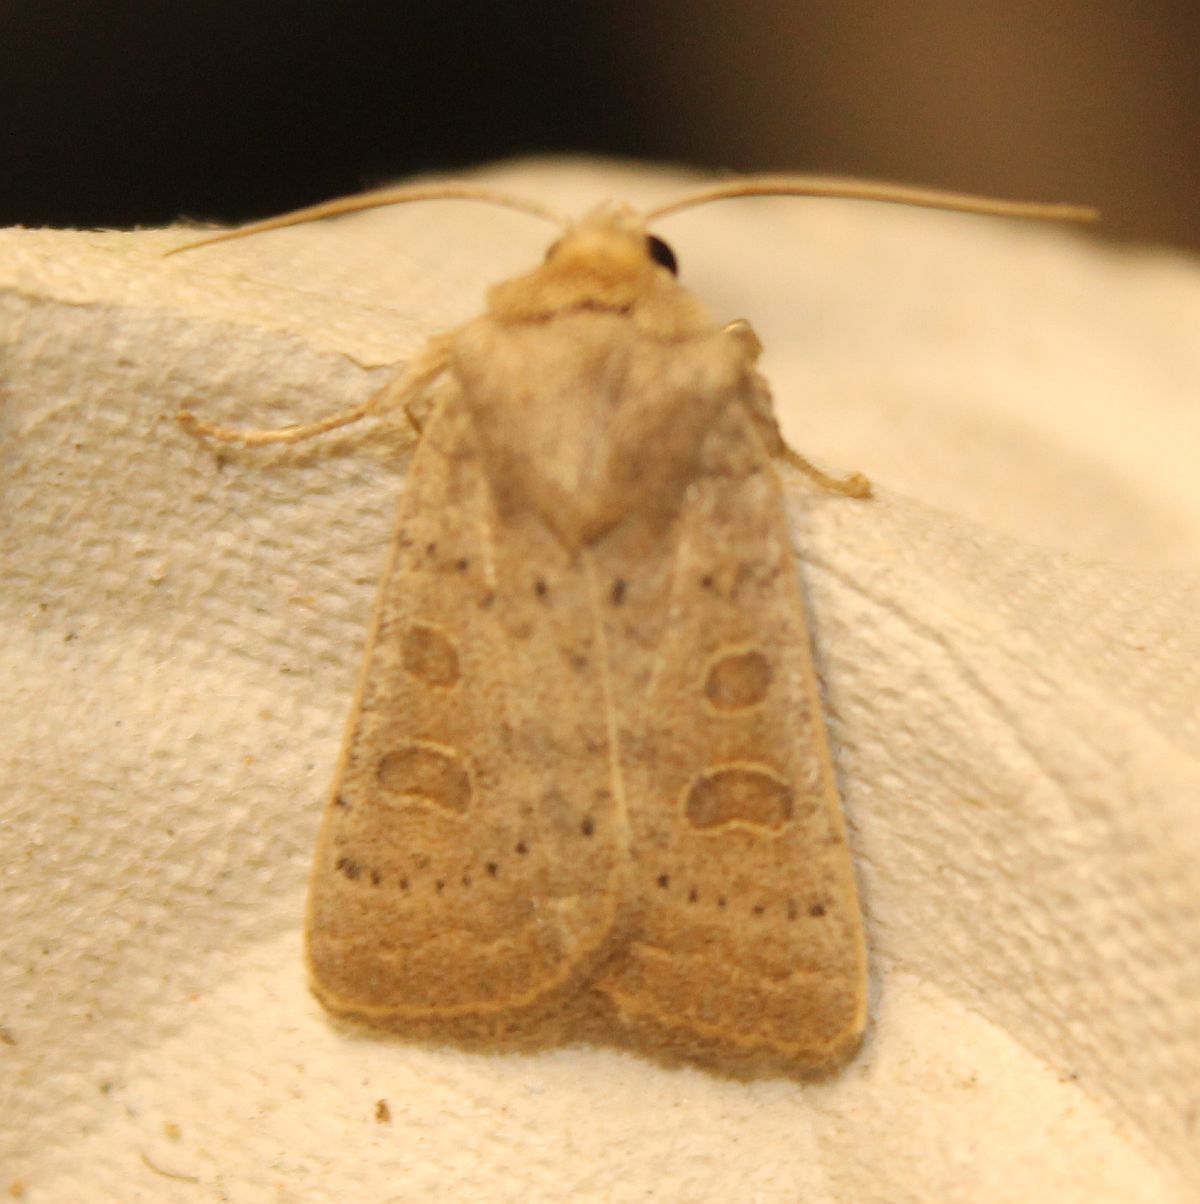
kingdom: Animalia
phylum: Arthropoda
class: Insecta
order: Lepidoptera
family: Noctuidae
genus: Hoplodrina
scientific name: Hoplodrina ambigua
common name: Vine's rustic
